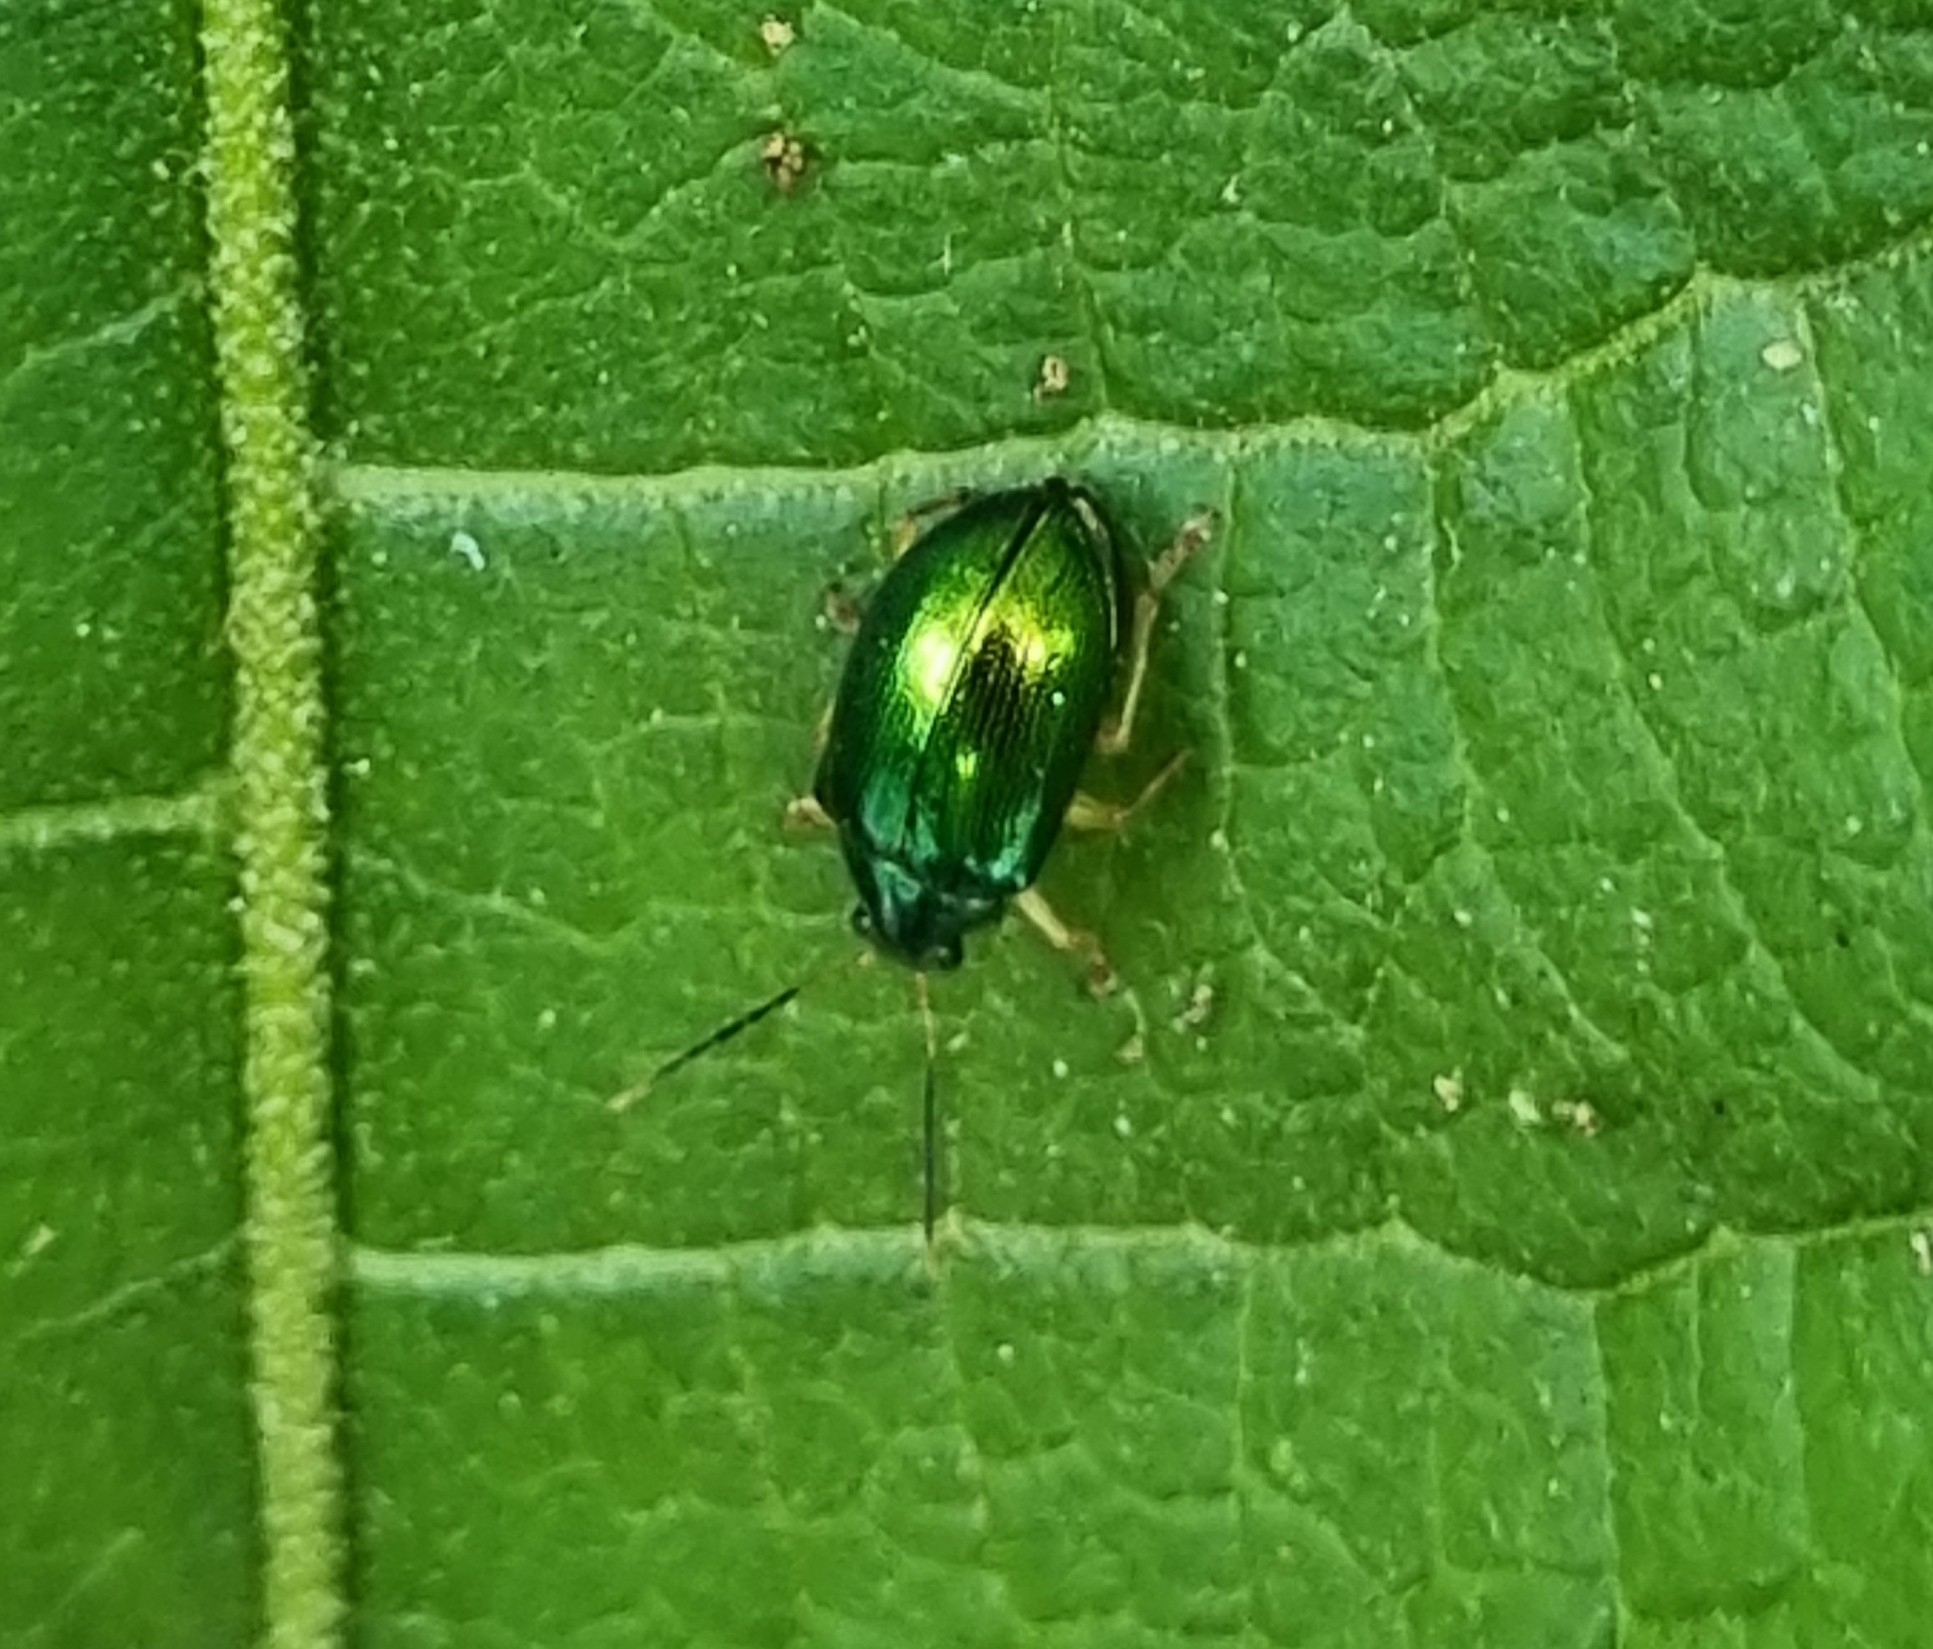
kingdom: Animalia
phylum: Arthropoda
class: Insecta
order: Coleoptera
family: Chrysomelidae
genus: Colaspis
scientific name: Colaspis
